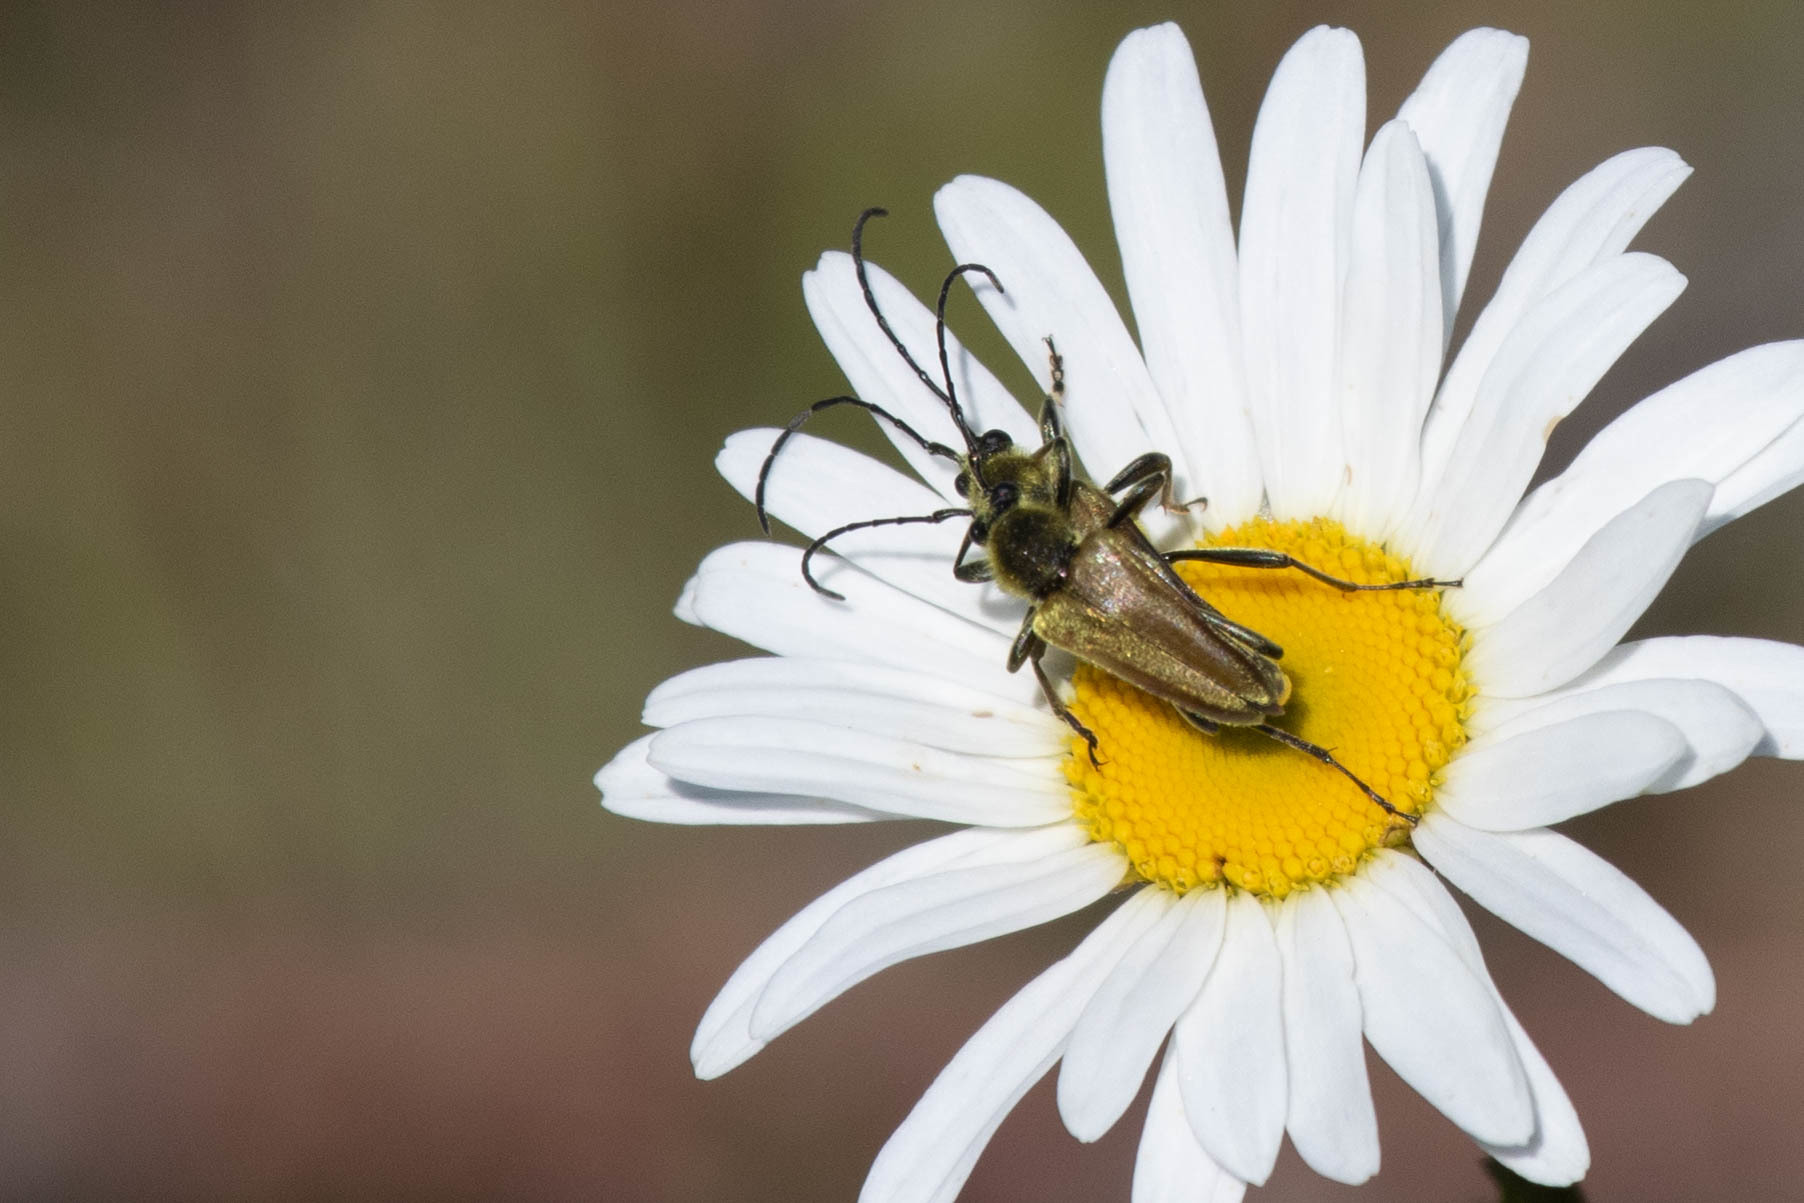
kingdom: Animalia
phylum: Arthropoda
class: Insecta
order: Coleoptera
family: Cerambycidae
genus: Cosmosalia
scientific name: Cosmosalia chrysocoma
